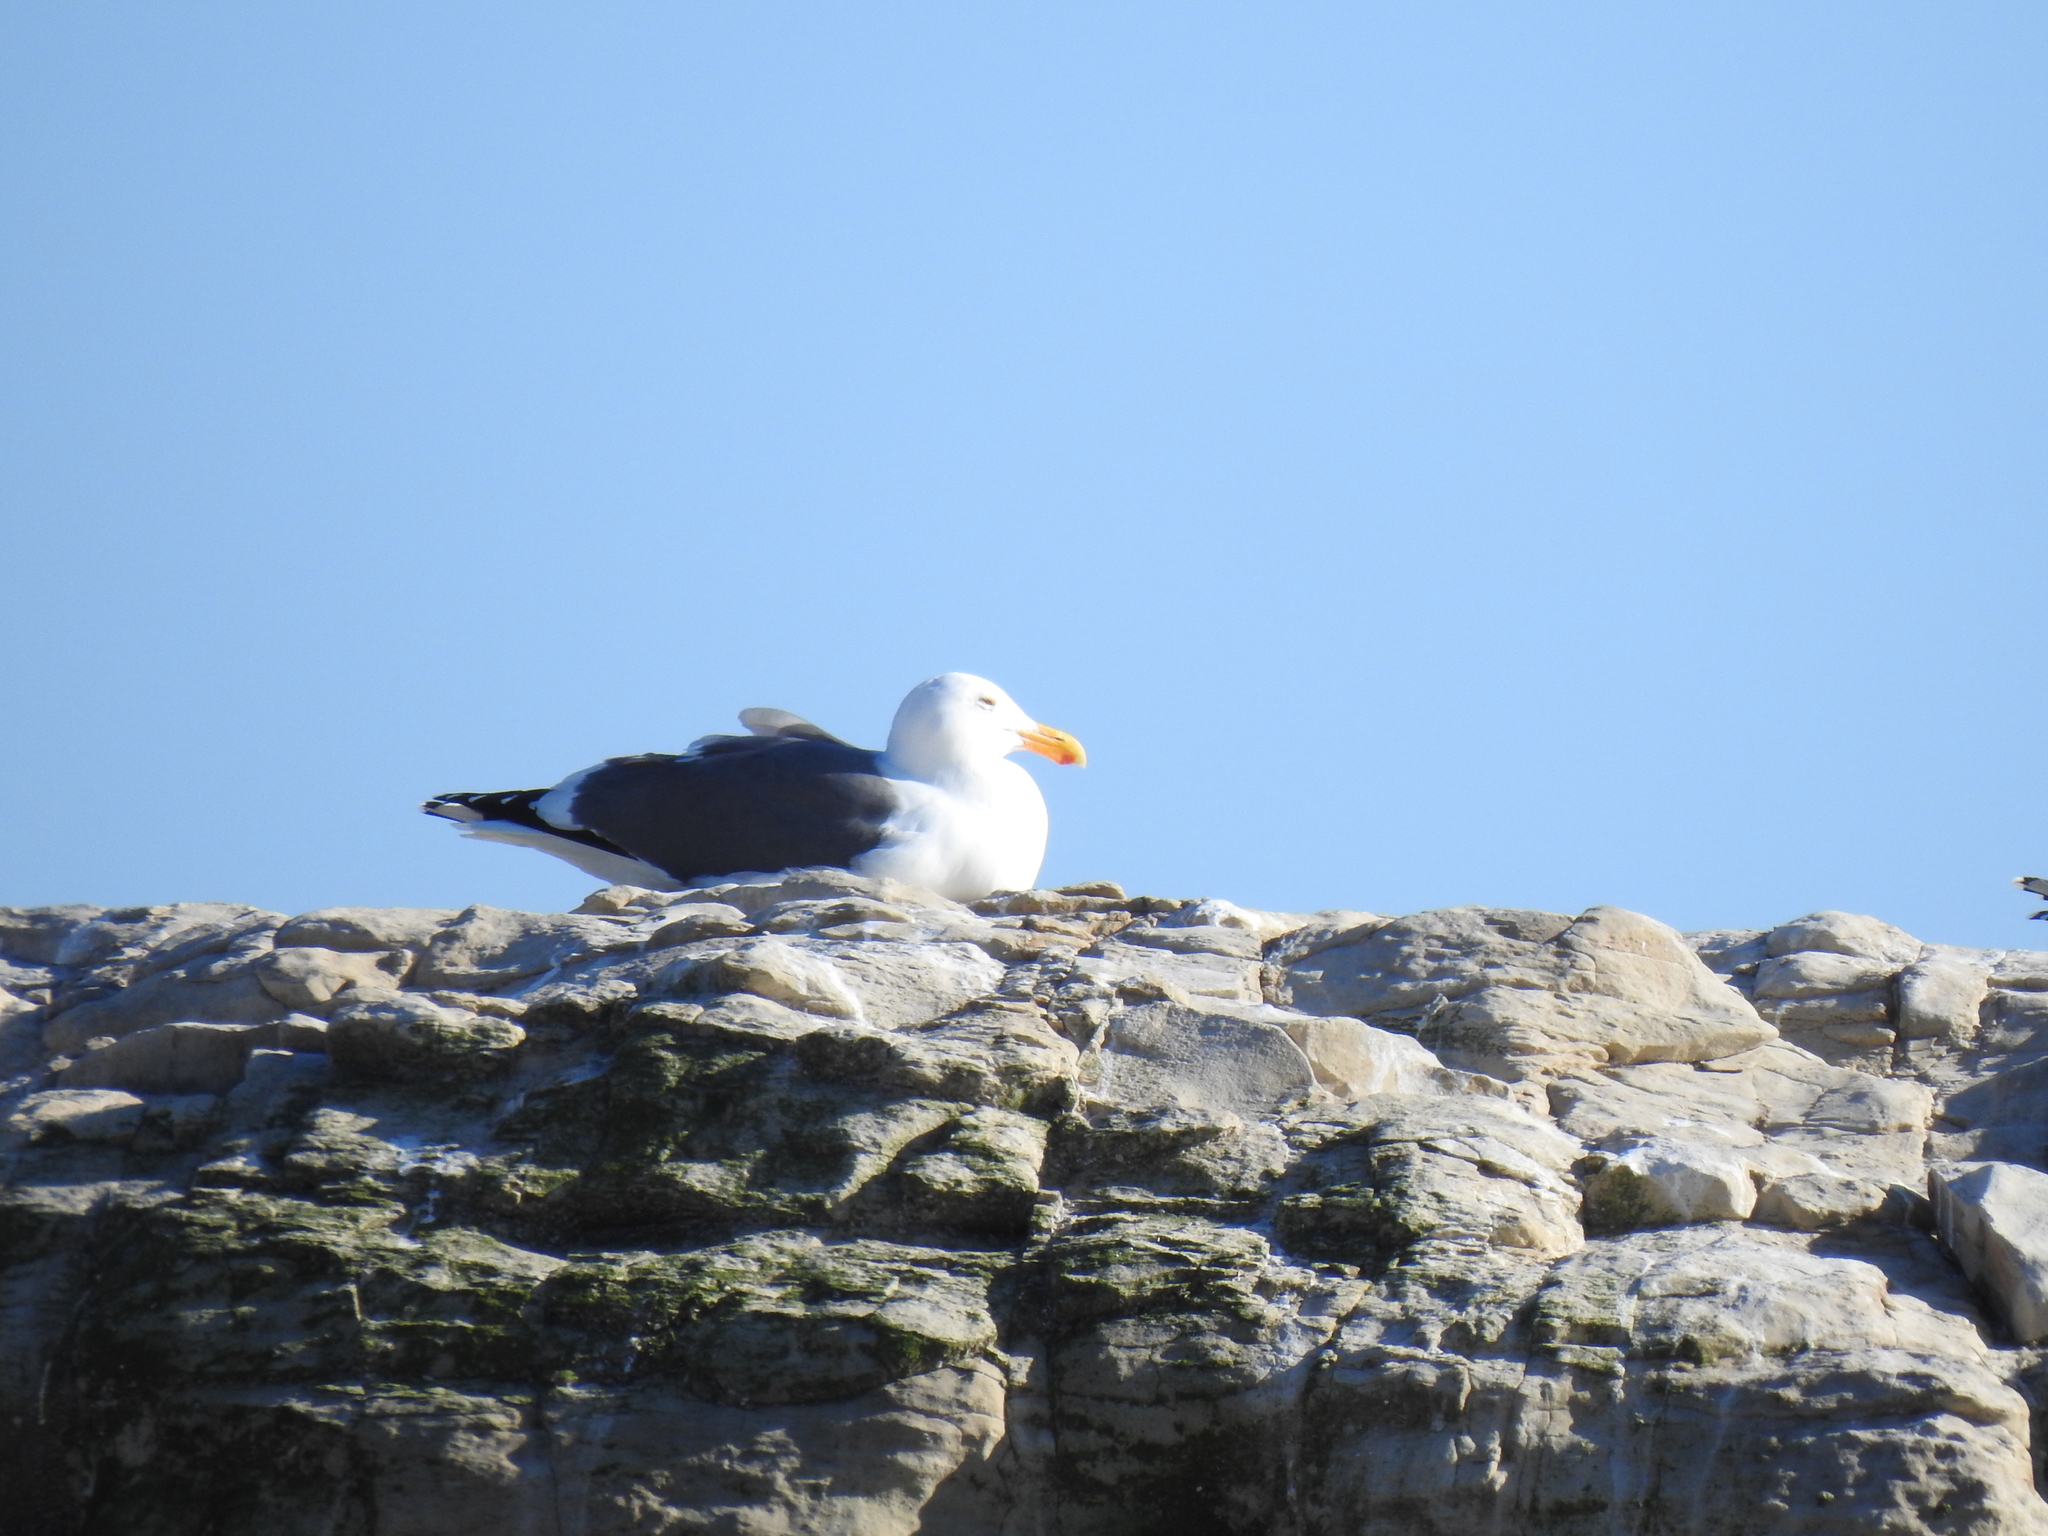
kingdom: Animalia
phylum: Chordata
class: Aves
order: Charadriiformes
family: Laridae
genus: Larus
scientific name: Larus occidentalis
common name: Western gull
